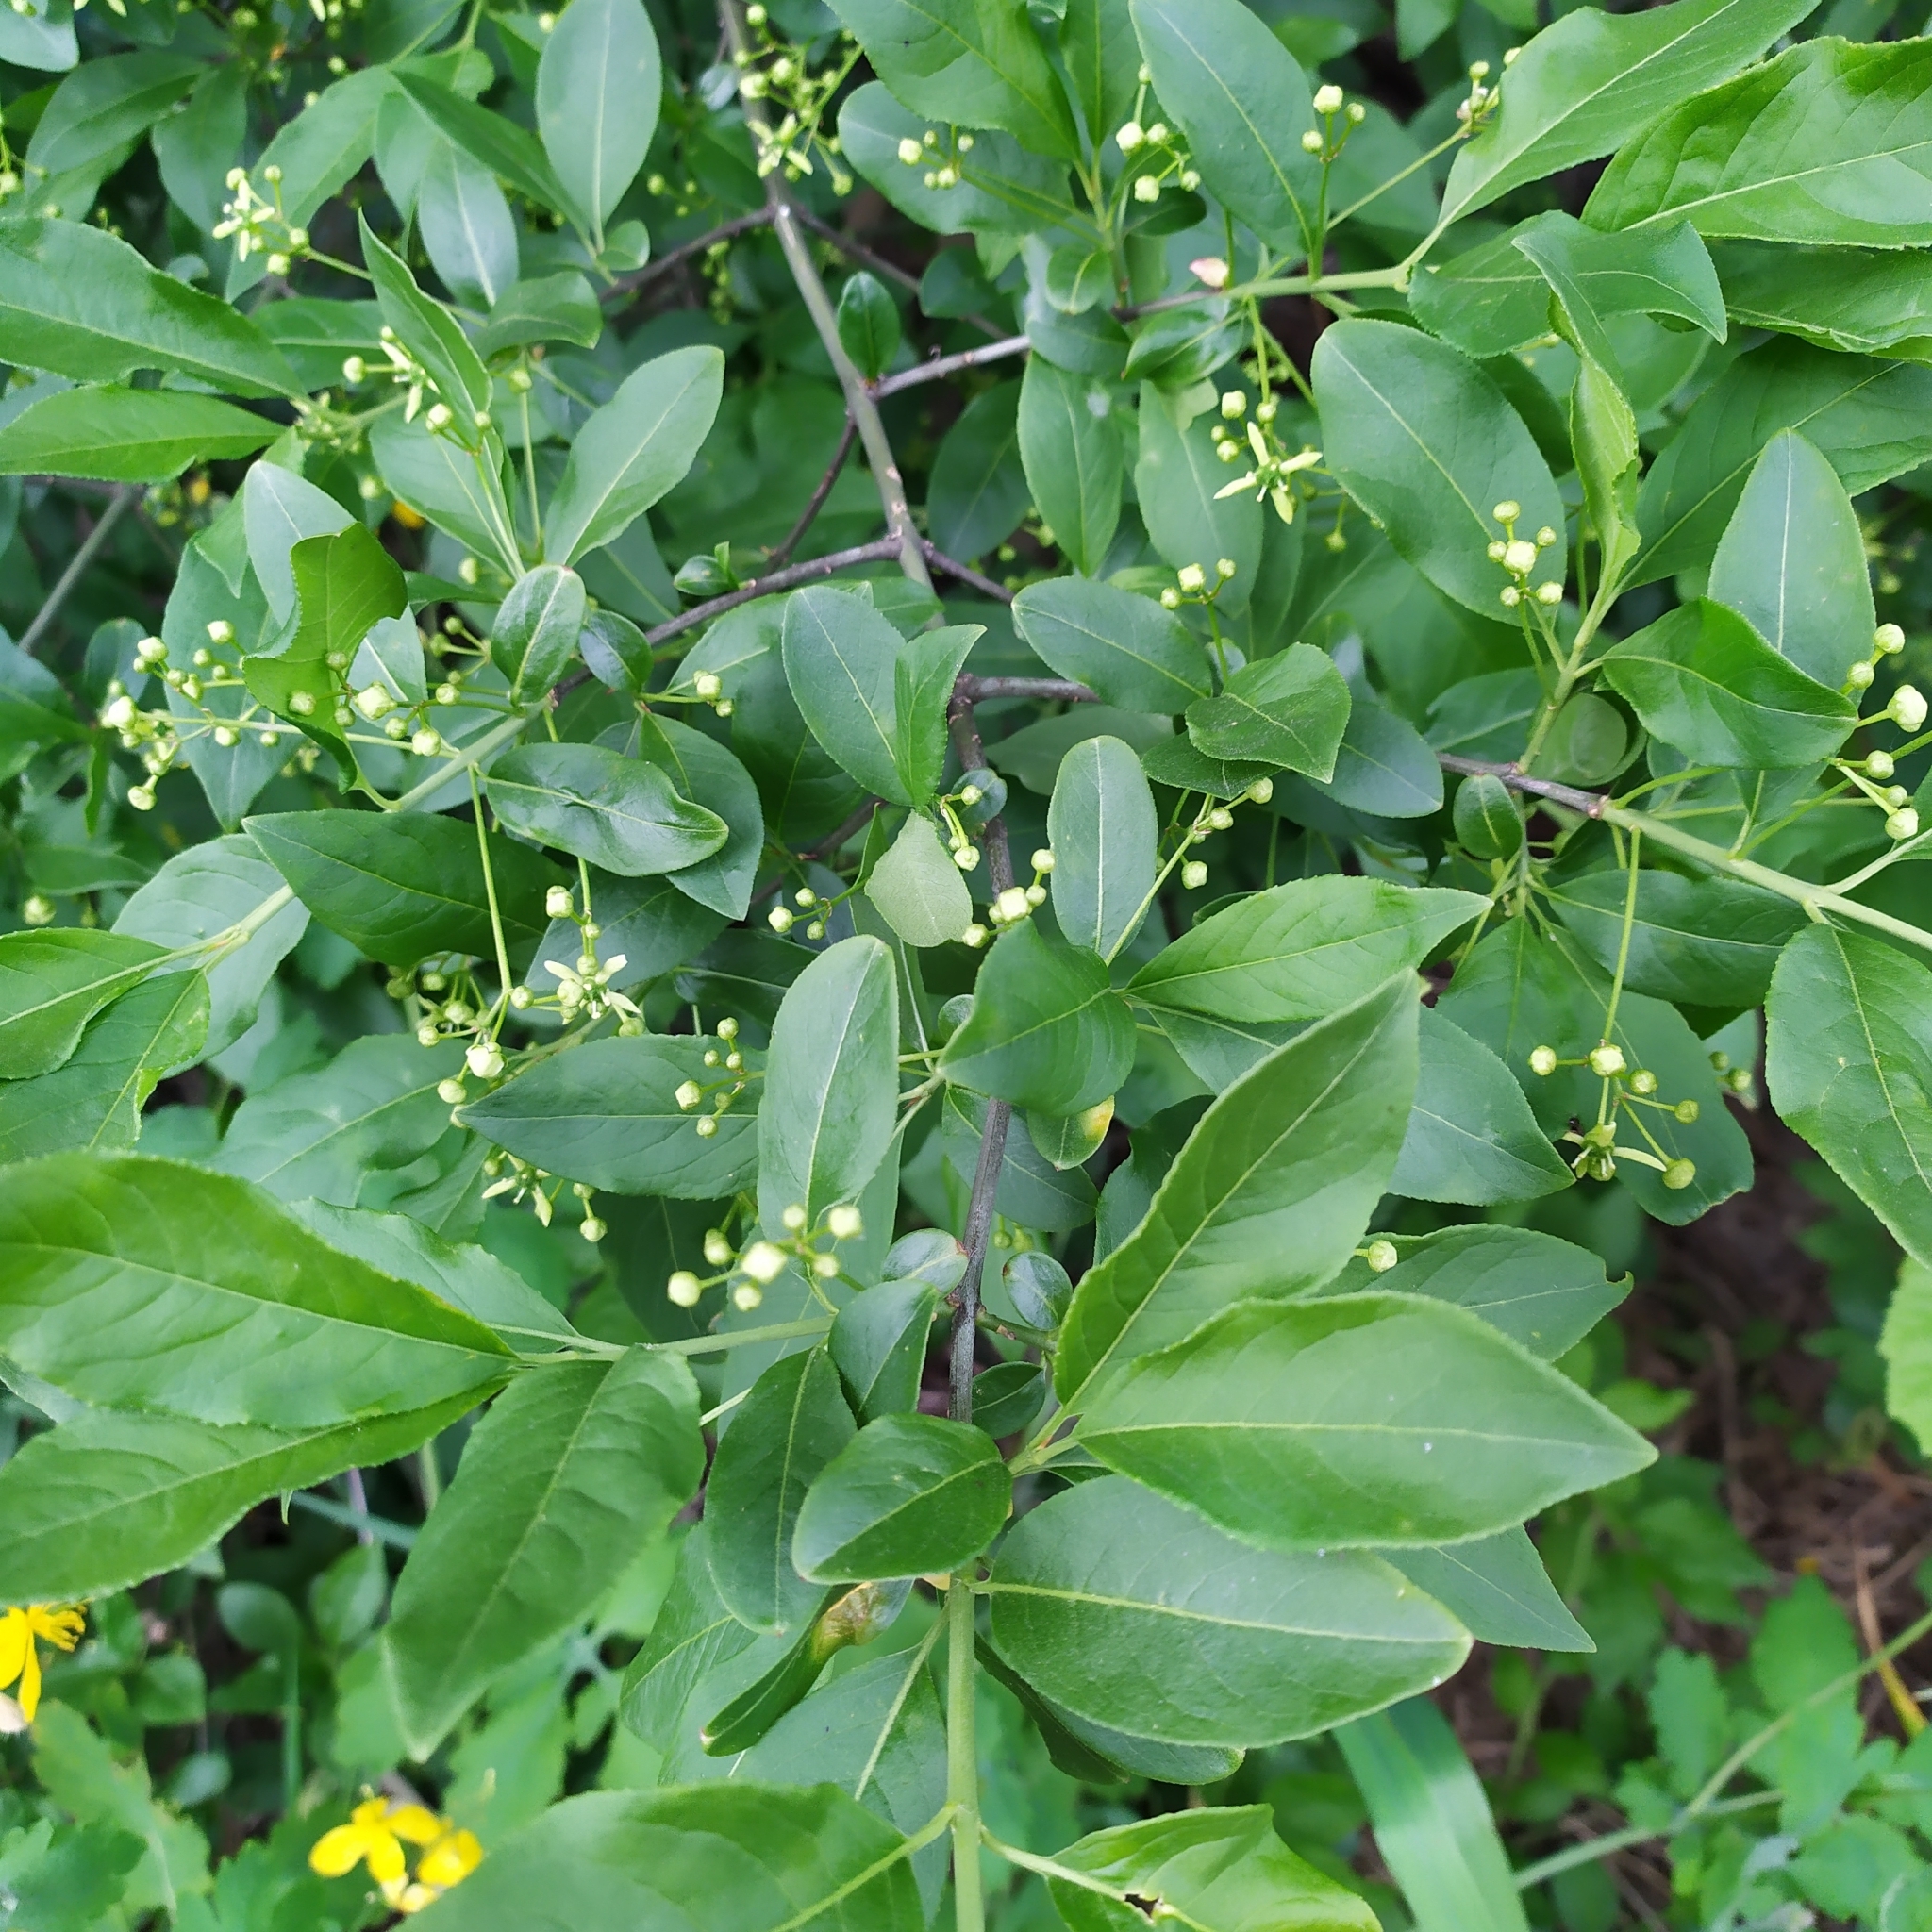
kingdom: Plantae
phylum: Tracheophyta
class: Magnoliopsida
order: Celastrales
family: Celastraceae
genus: Euonymus
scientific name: Euonymus europaeus
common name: Spindle
